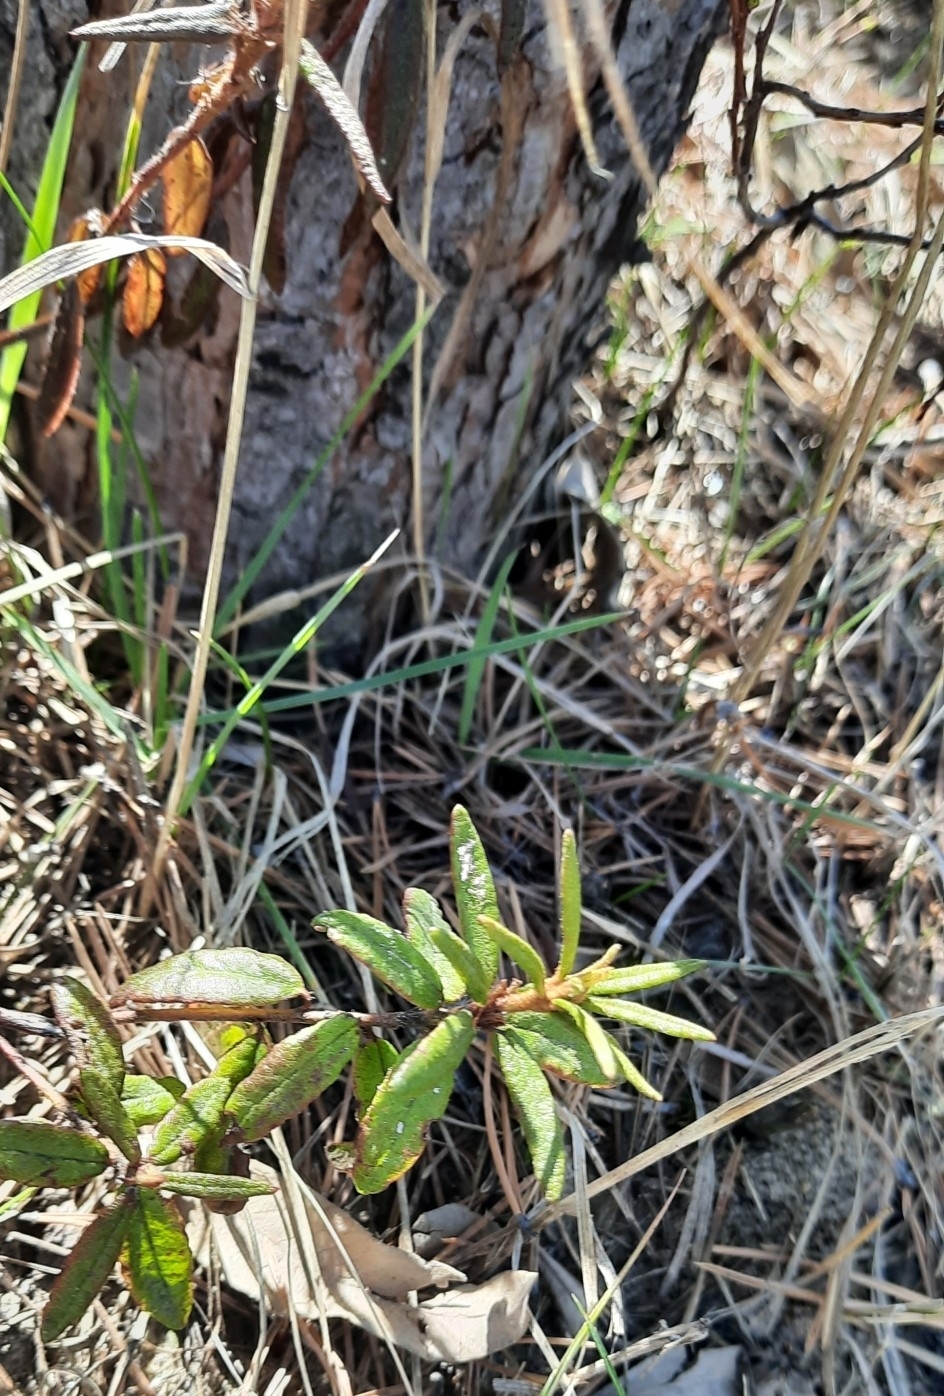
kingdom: Plantae
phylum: Tracheophyta
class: Magnoliopsida
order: Ericales
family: Ericaceae
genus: Rhododendron
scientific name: Rhododendron tomentosum
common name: Marsh labrador tea
